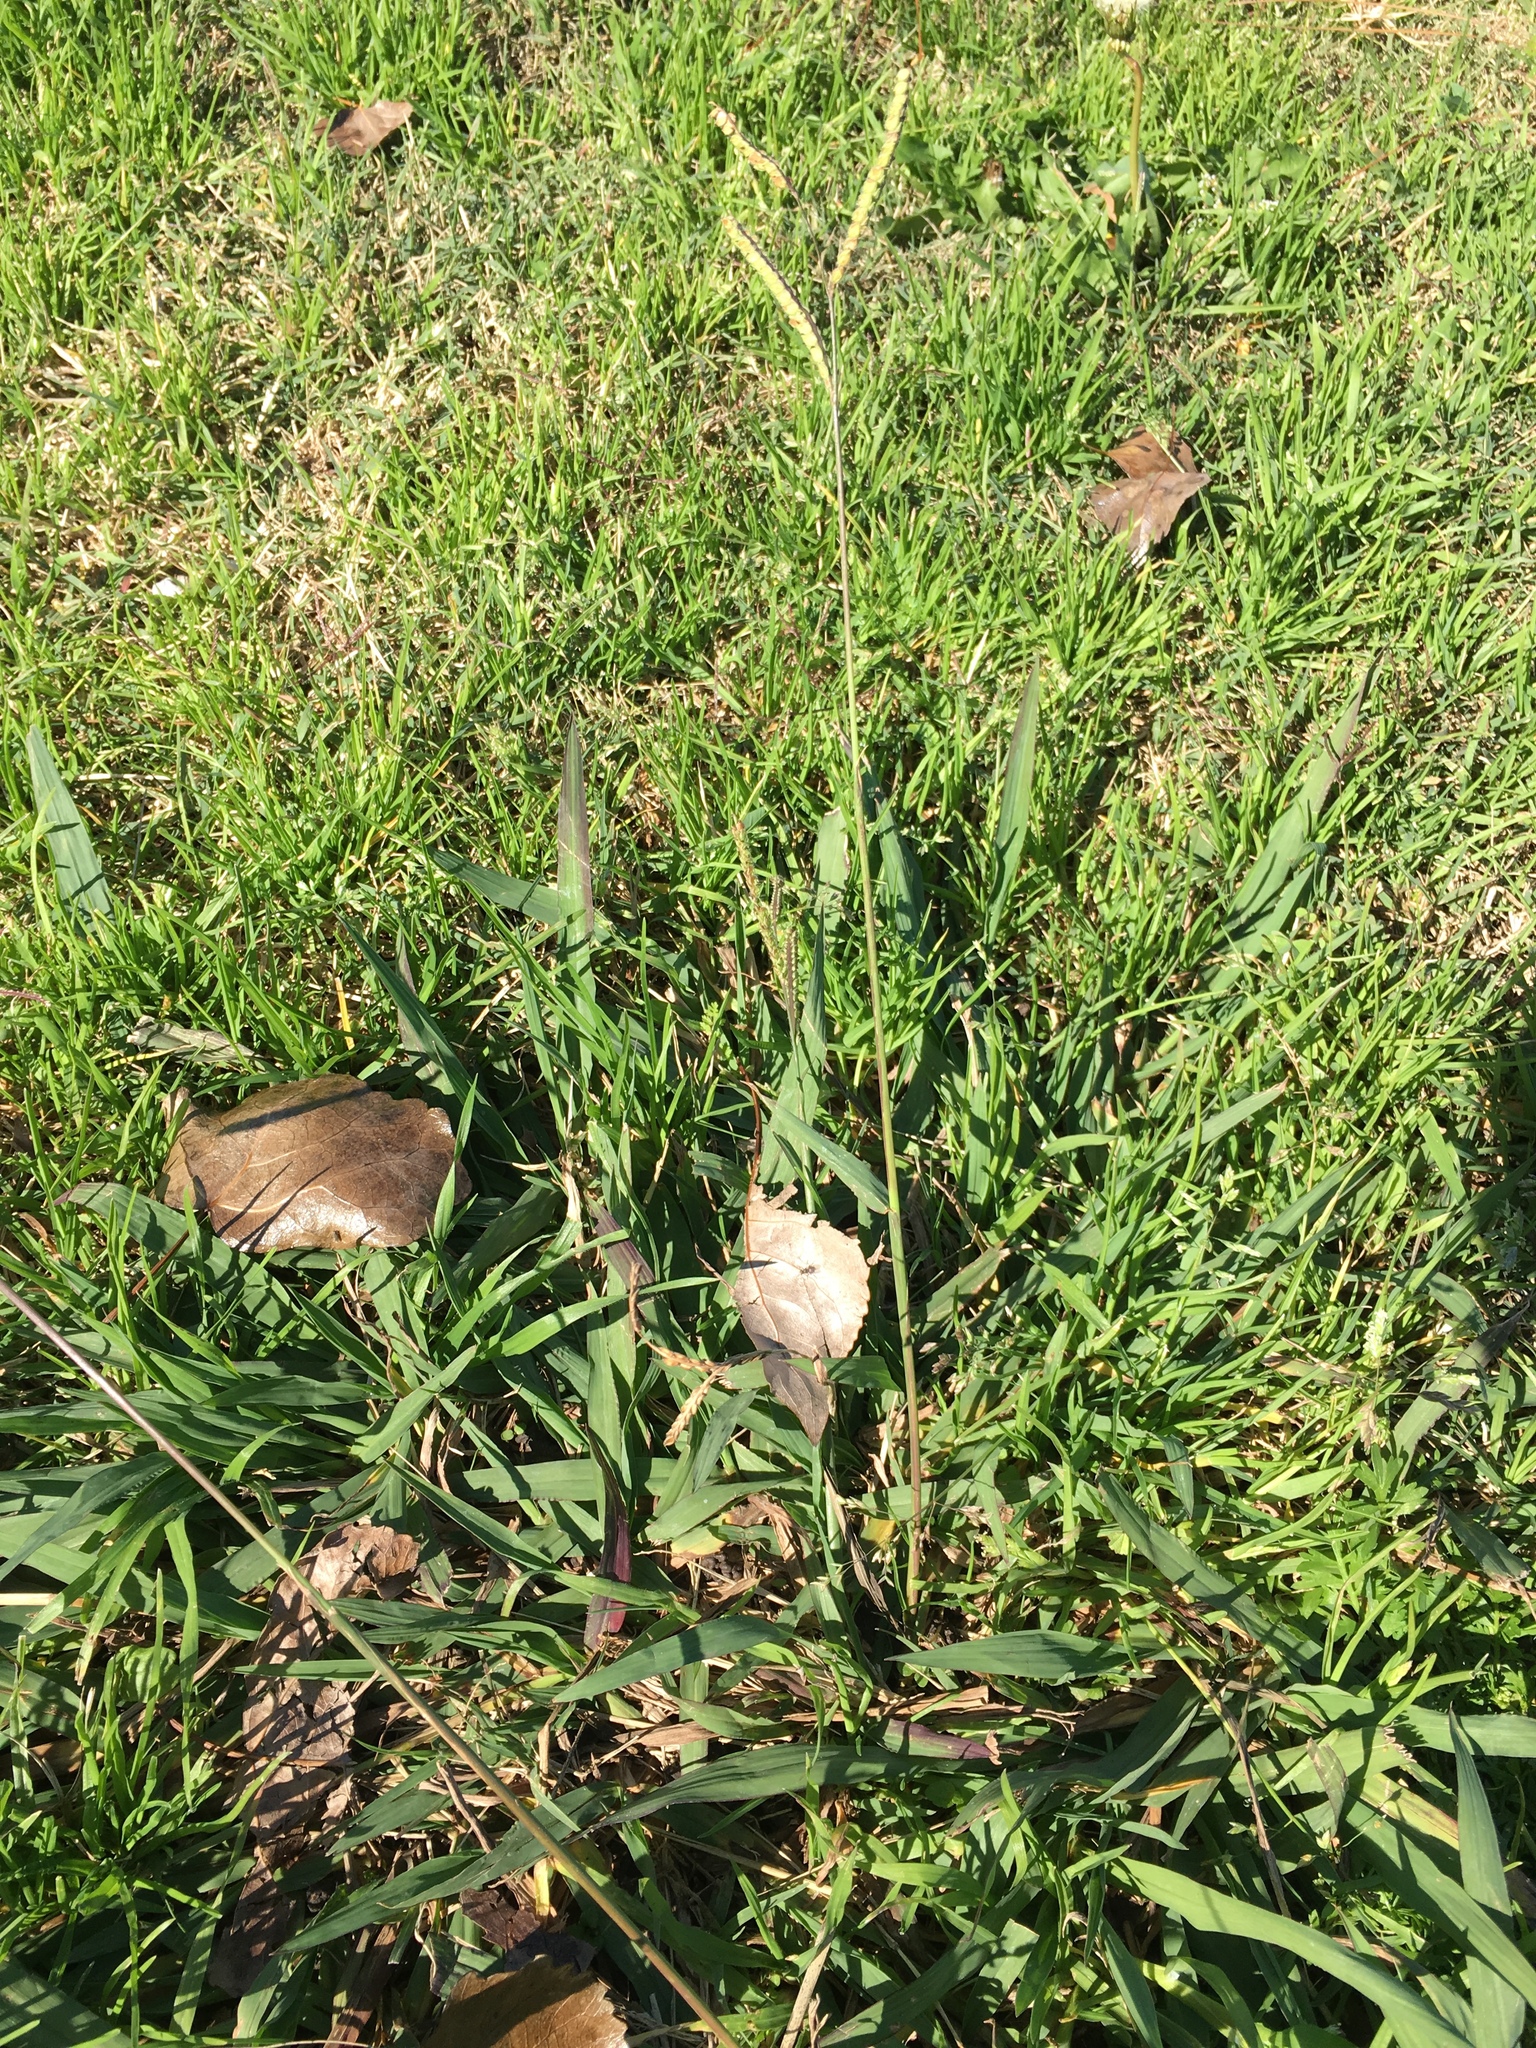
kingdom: Plantae
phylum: Tracheophyta
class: Liliopsida
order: Poales
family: Poaceae
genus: Paspalum
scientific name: Paspalum dilatatum
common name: Dallisgrass
